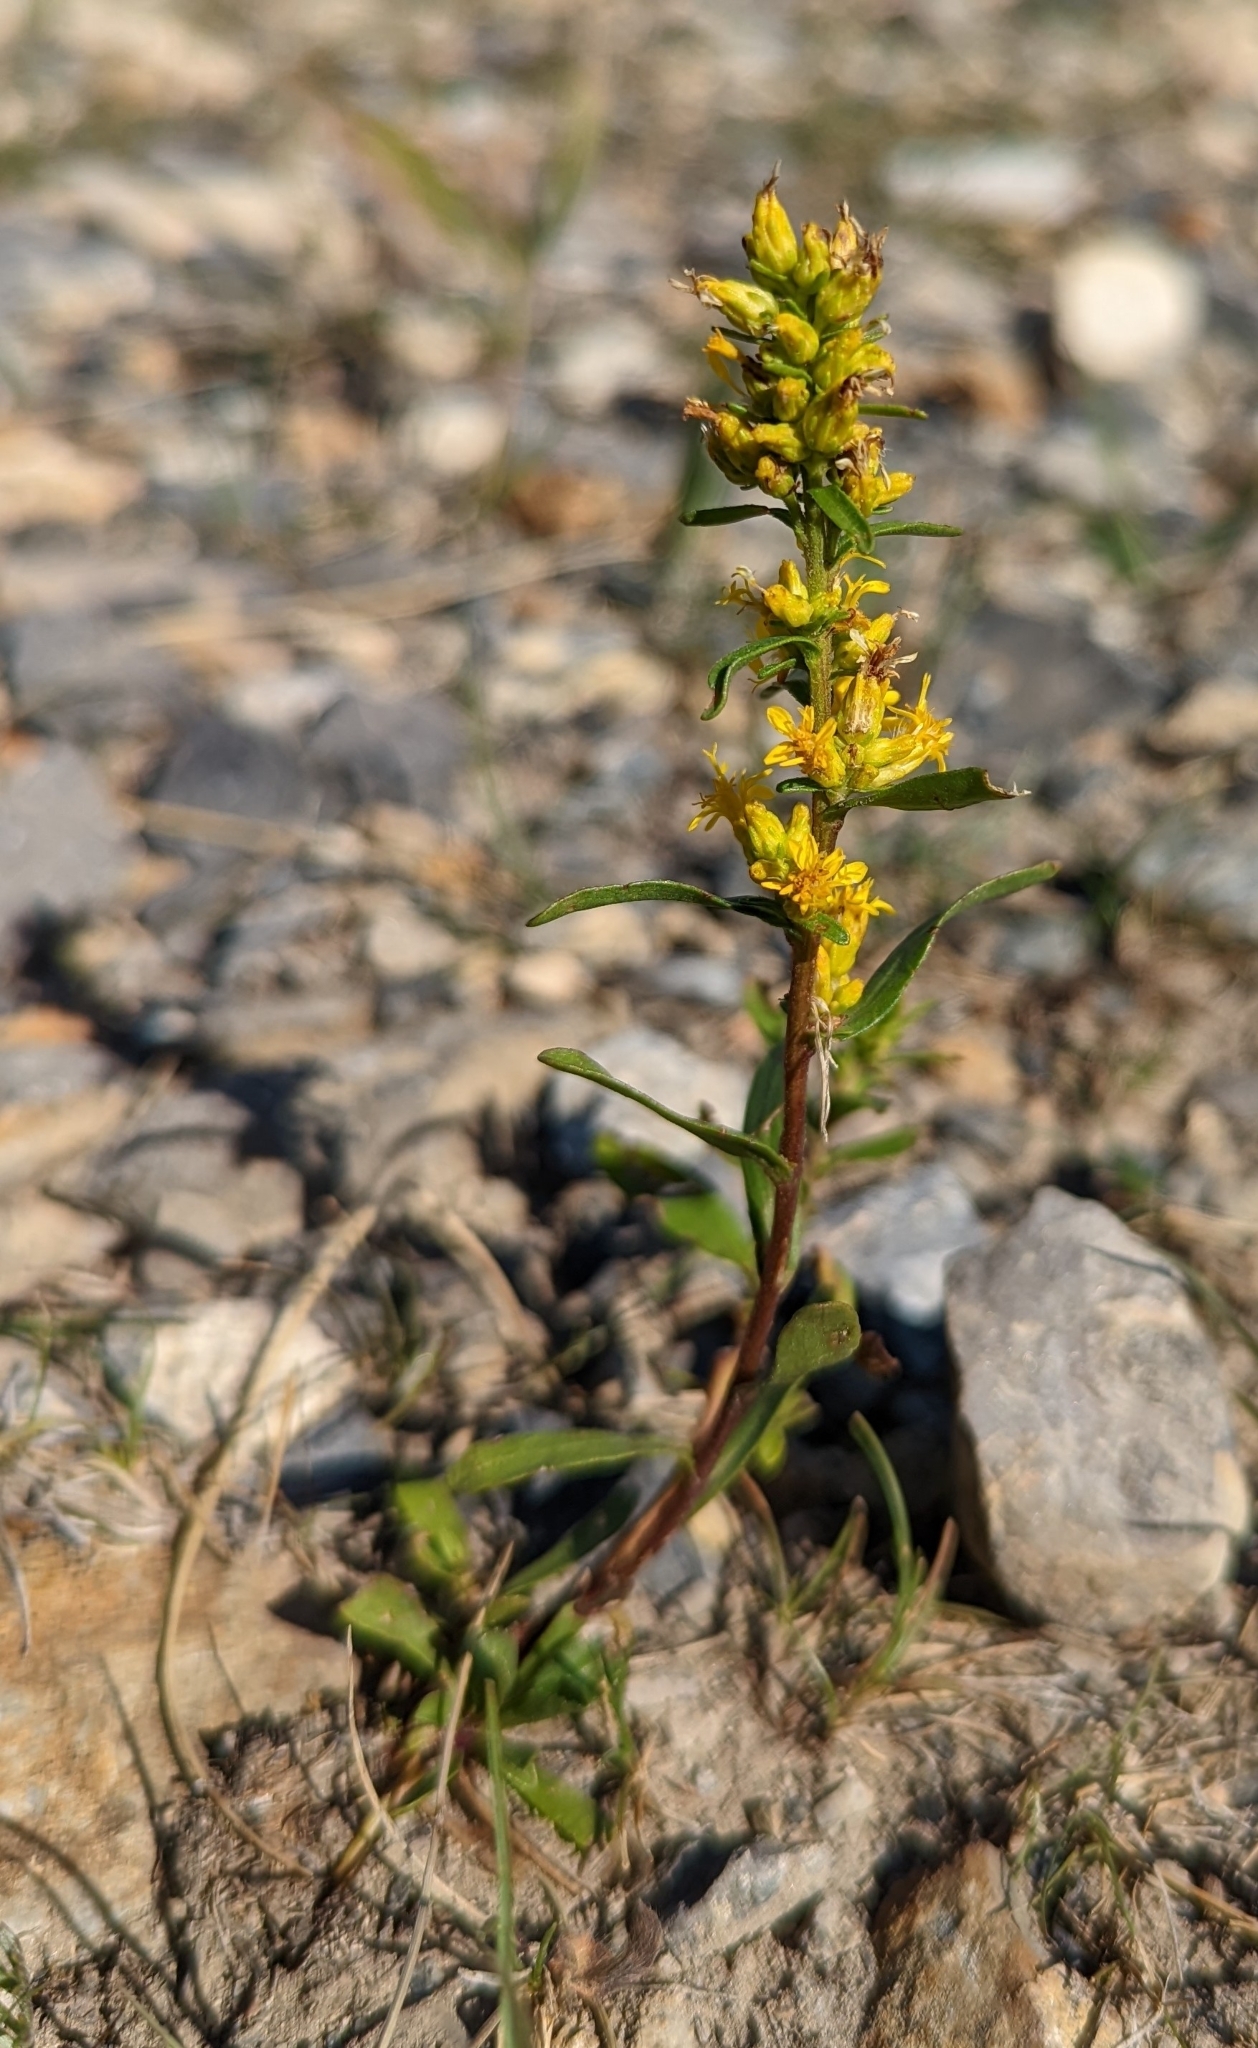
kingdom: Plantae
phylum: Tracheophyta
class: Magnoliopsida
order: Asterales
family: Asteraceae
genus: Solidago
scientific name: Solidago glutinosa
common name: Decumbent goldenrod
